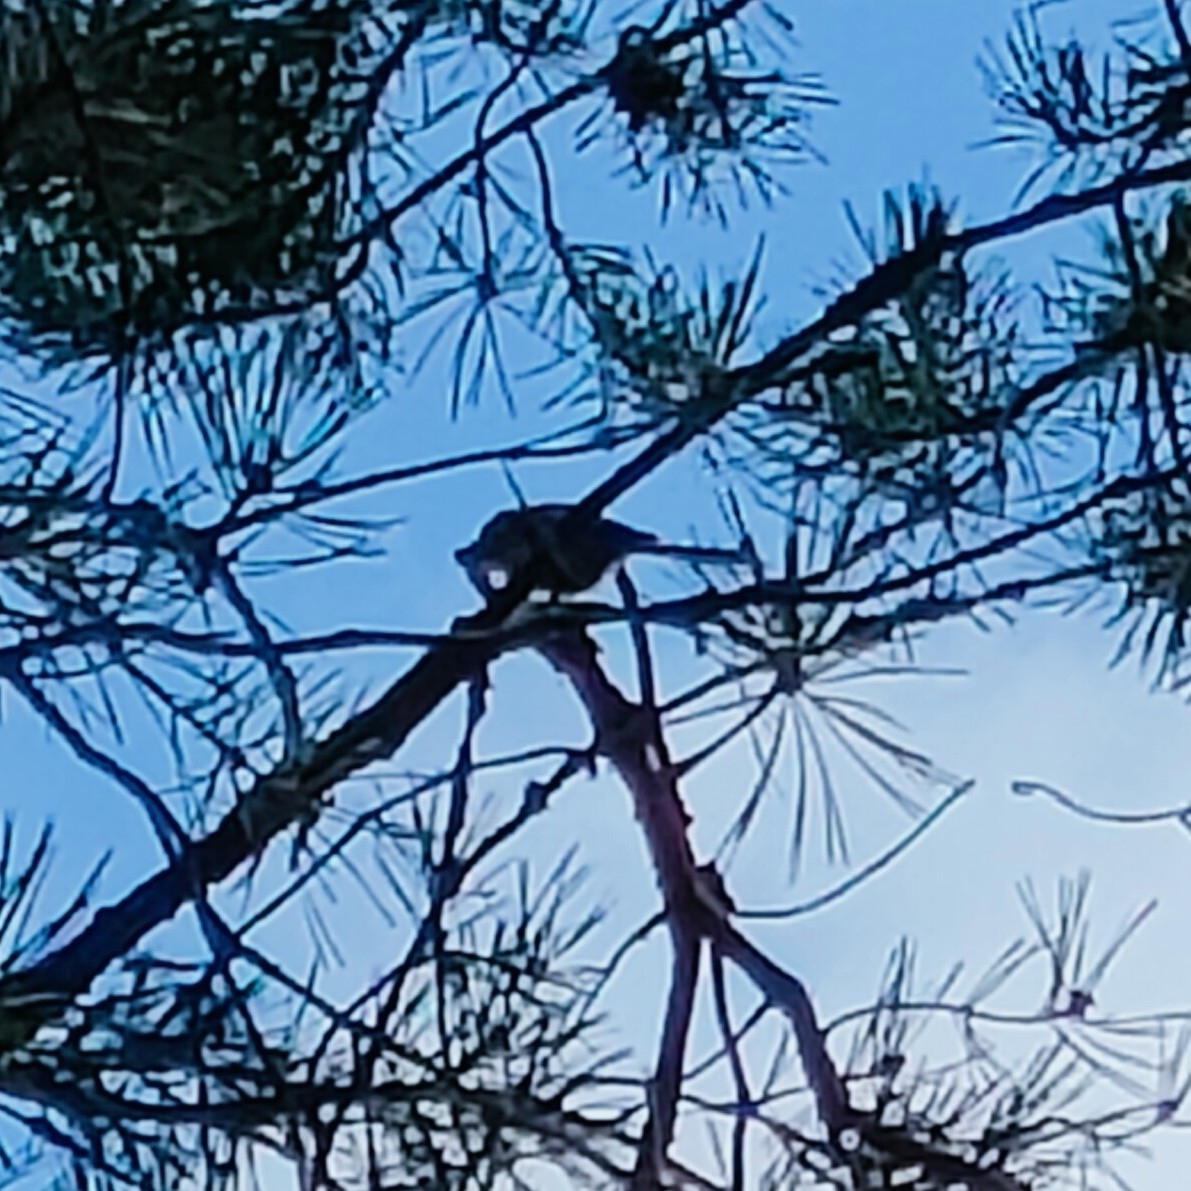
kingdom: Animalia
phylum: Chordata
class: Aves
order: Passeriformes
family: Aegithalidae
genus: Aegithalos
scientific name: Aegithalos caudatus
